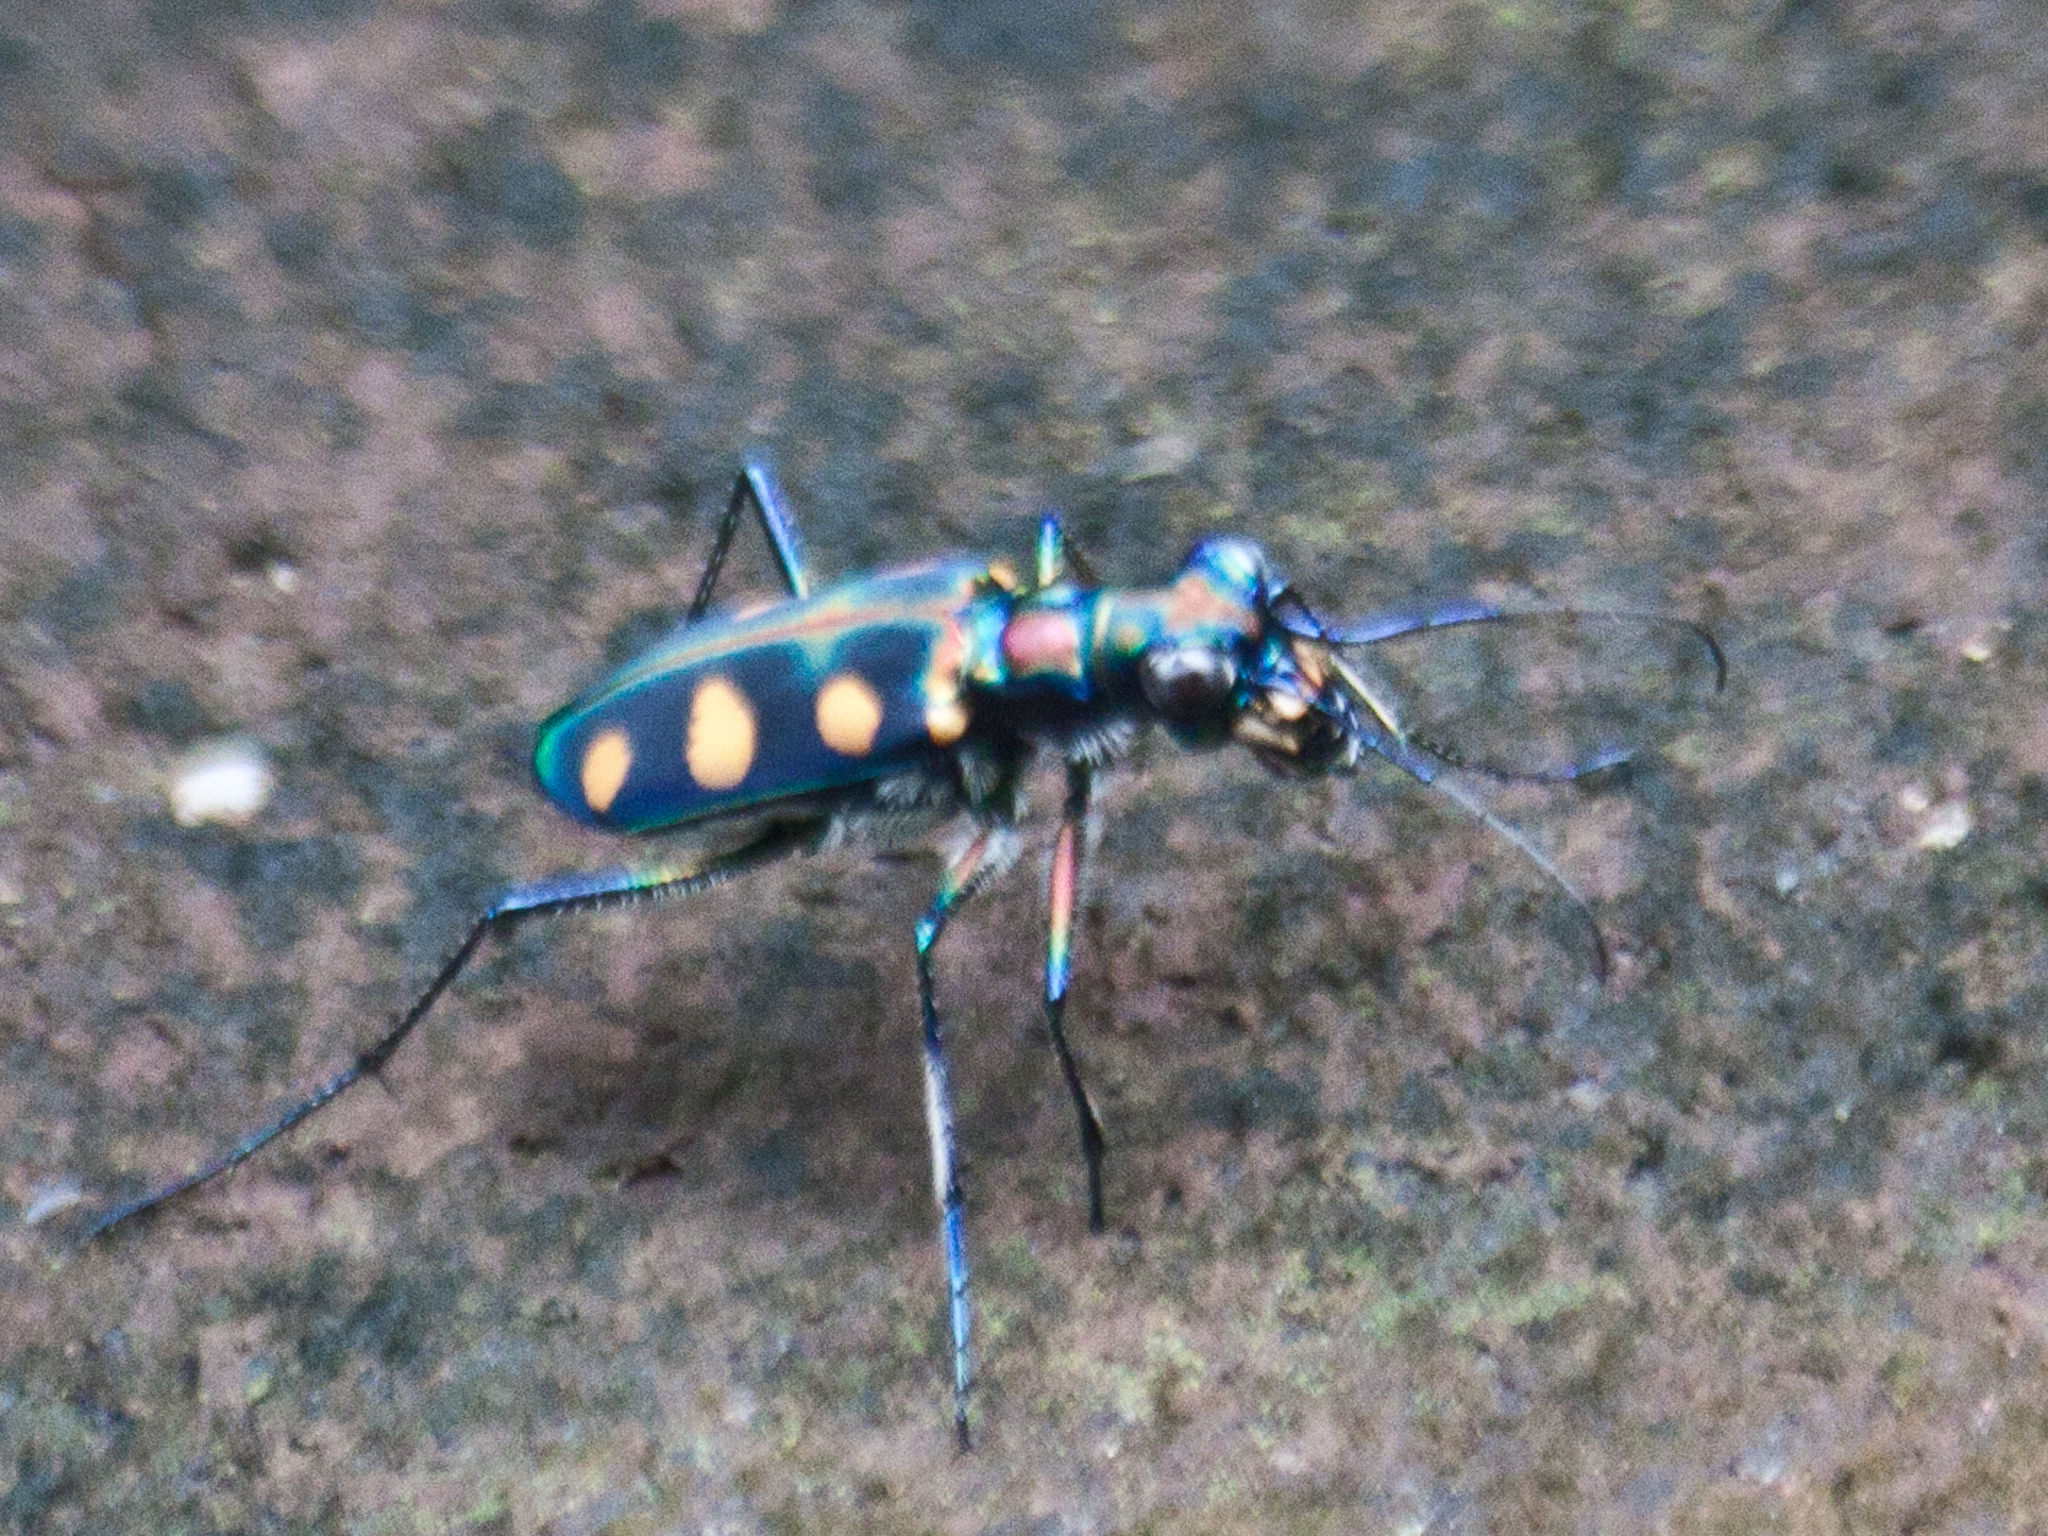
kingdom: Animalia
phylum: Arthropoda
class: Insecta
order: Coleoptera
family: Carabidae
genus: Cicindela
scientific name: Cicindela juxtata
